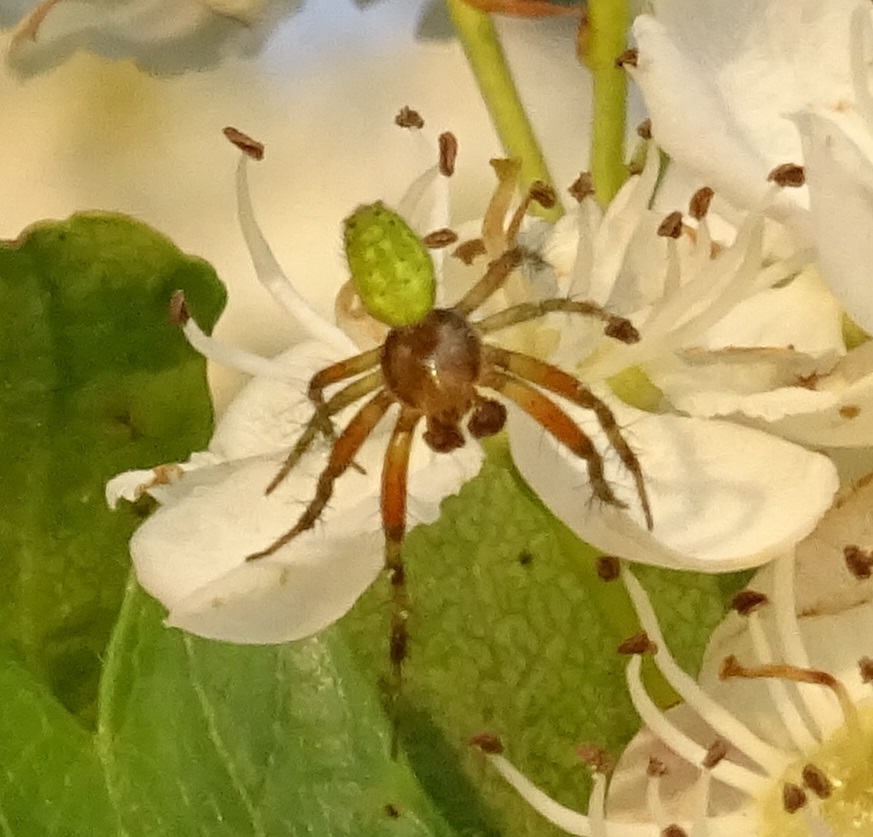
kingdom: Animalia
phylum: Arthropoda
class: Arachnida
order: Araneae
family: Araneidae
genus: Araniella
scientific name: Araniella
